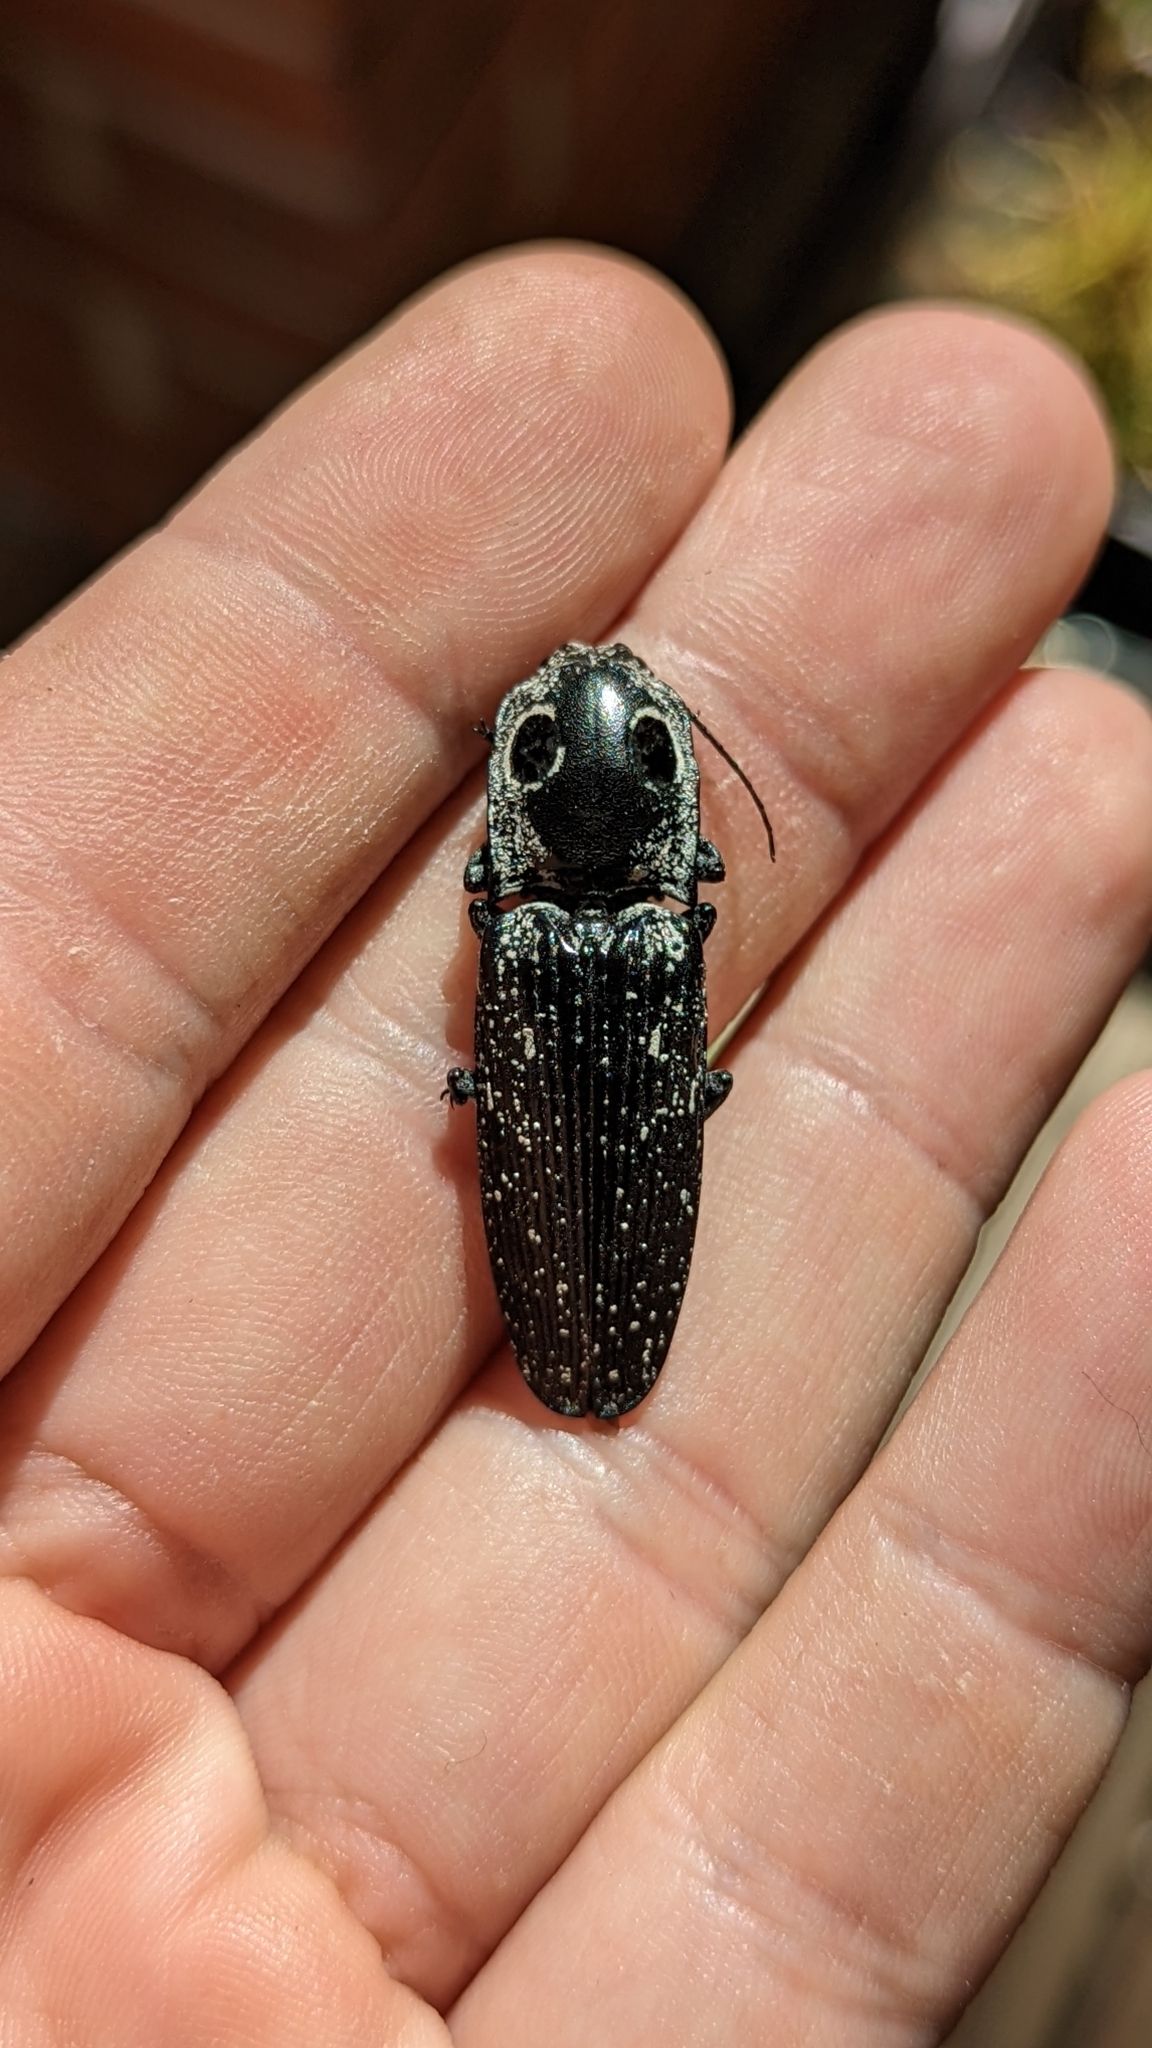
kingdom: Animalia
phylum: Arthropoda
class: Insecta
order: Coleoptera
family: Elateridae
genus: Alaus
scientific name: Alaus oculatus
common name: Eastern eyed click beetle
